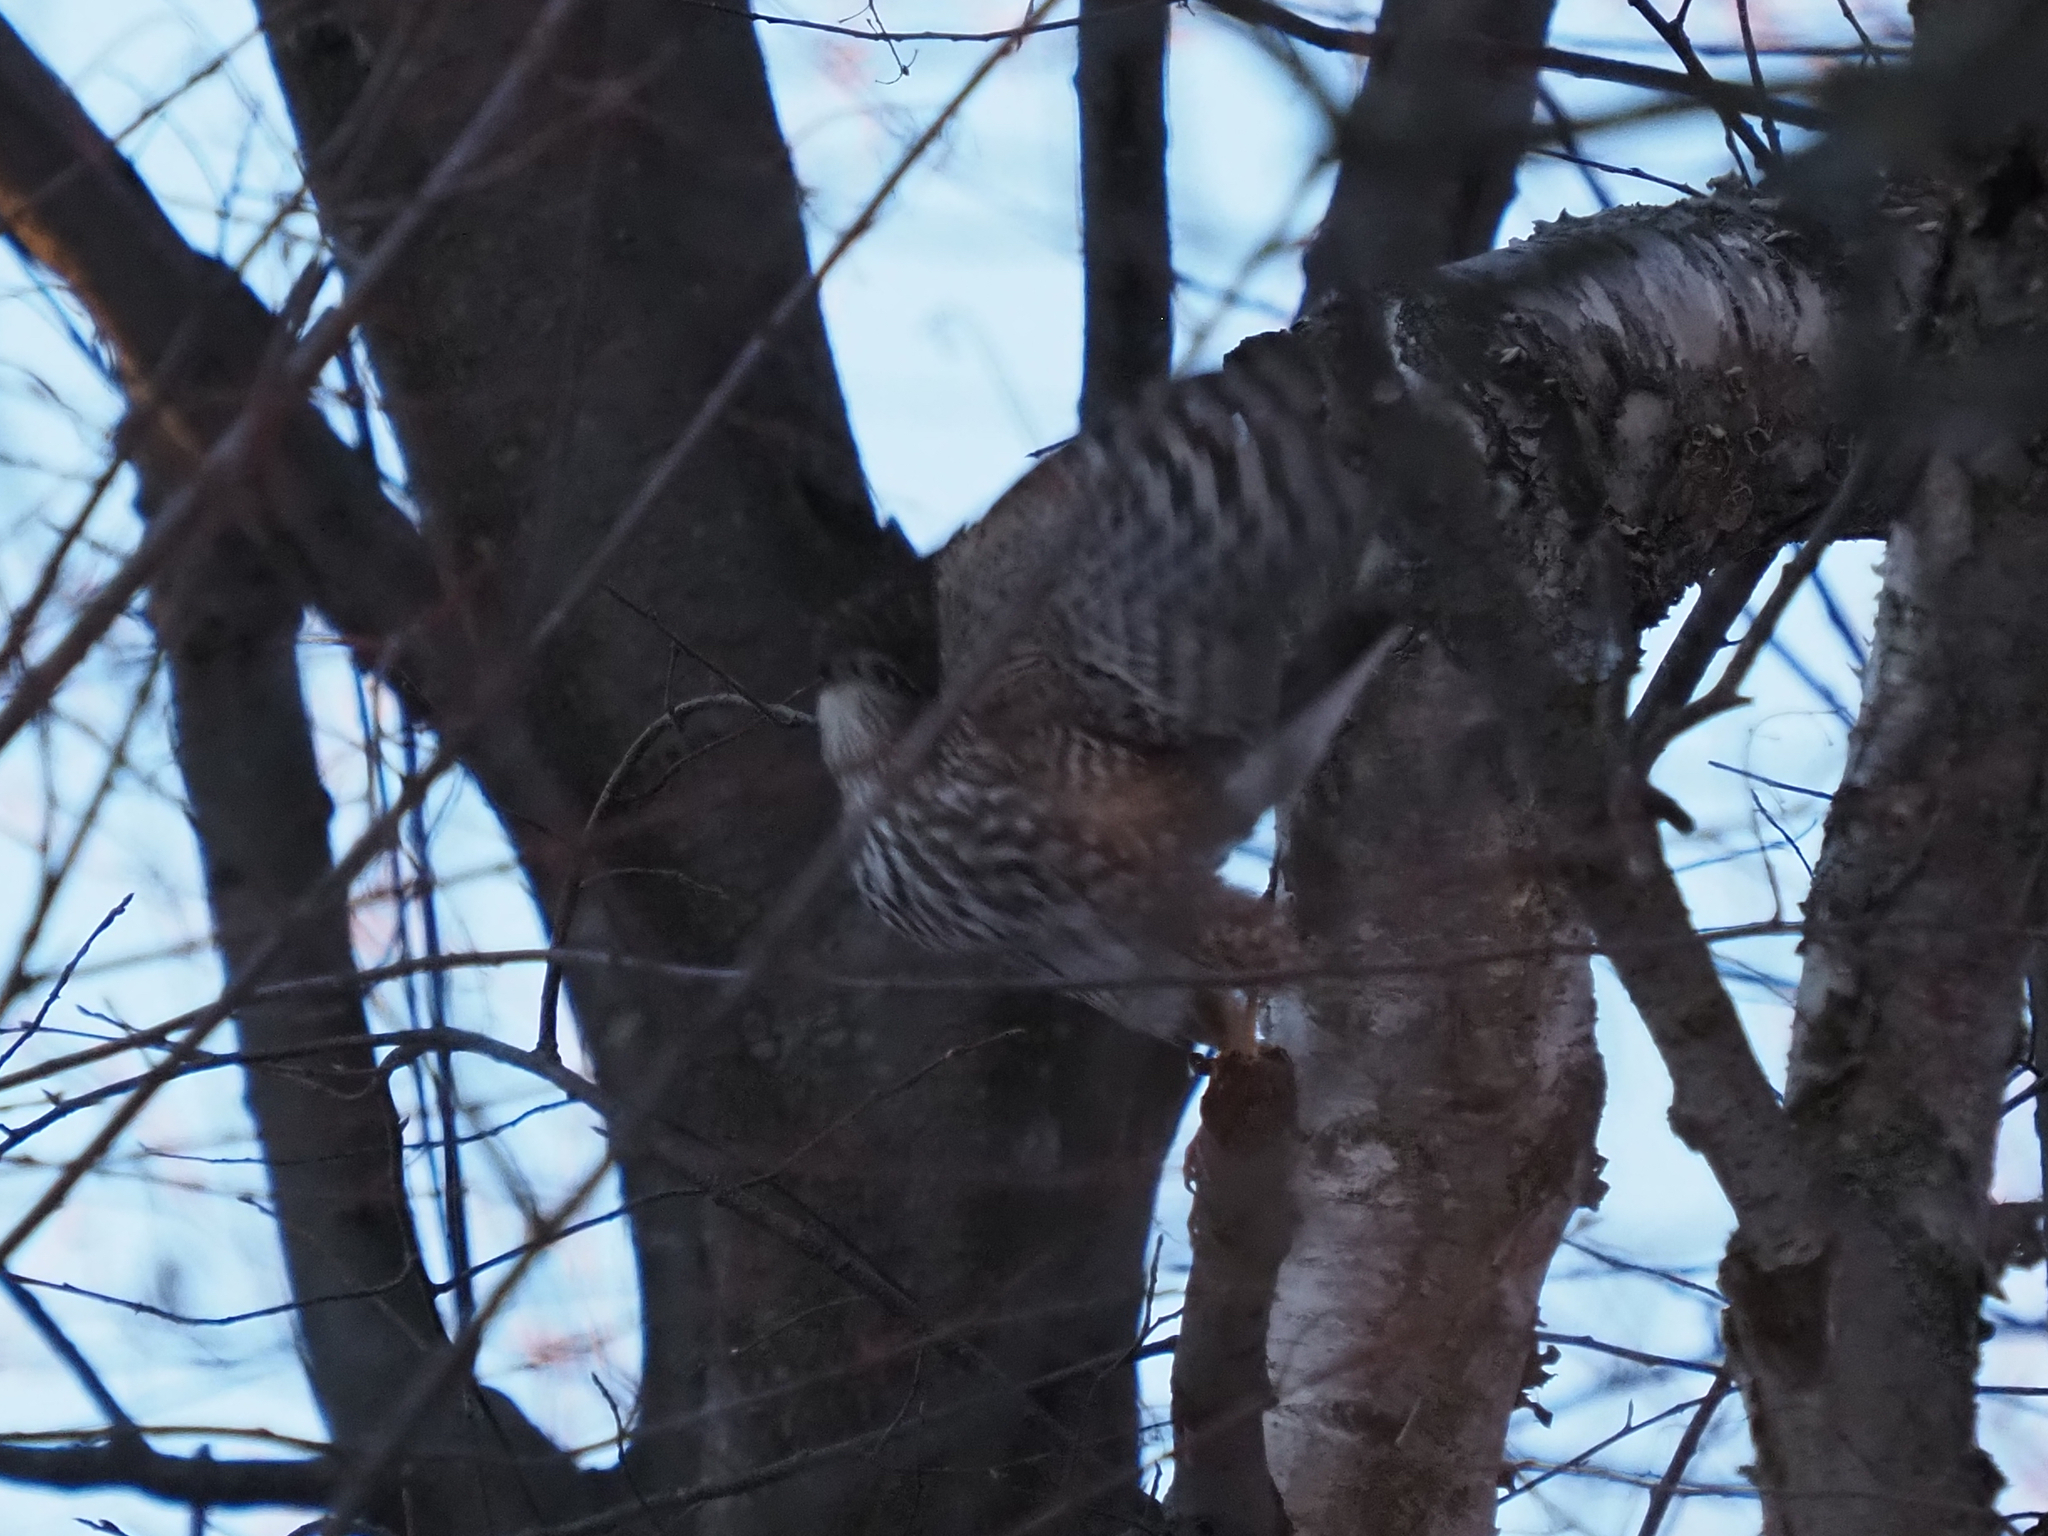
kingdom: Animalia
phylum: Chordata
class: Aves
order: Accipitriformes
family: Accipitridae
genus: Accipiter
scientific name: Accipiter striatus
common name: Sharp-shinned hawk
